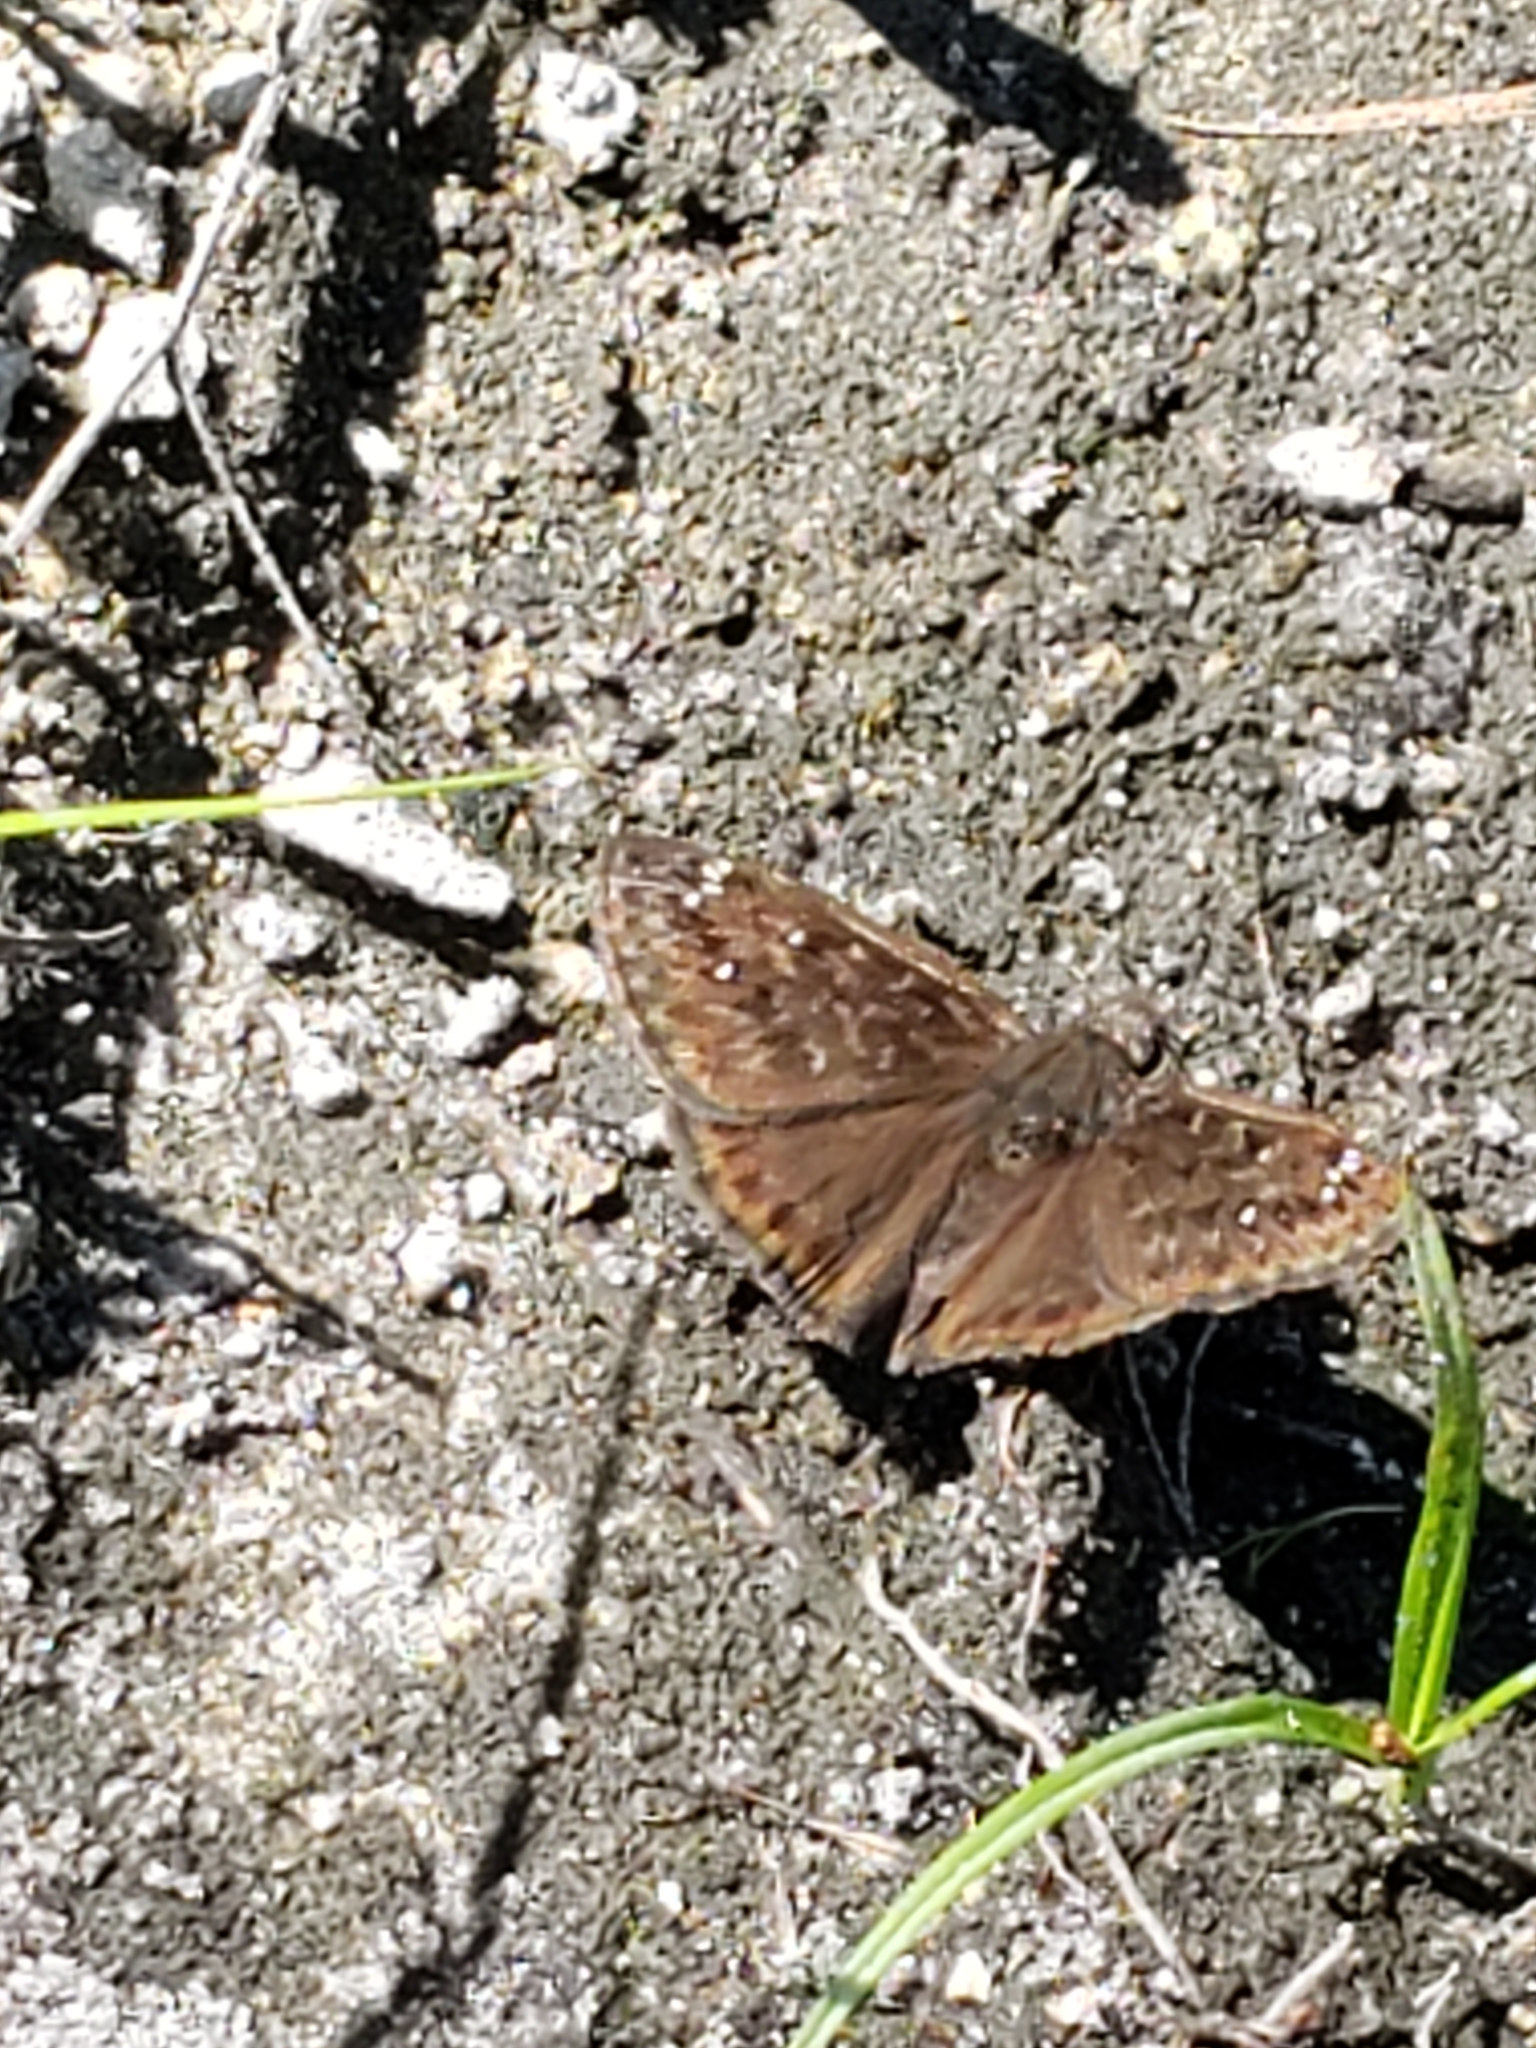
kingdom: Animalia
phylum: Arthropoda
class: Insecta
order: Lepidoptera
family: Hesperiidae
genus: Erynnis
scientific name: Erynnis horatius
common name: Horace's duskywing
